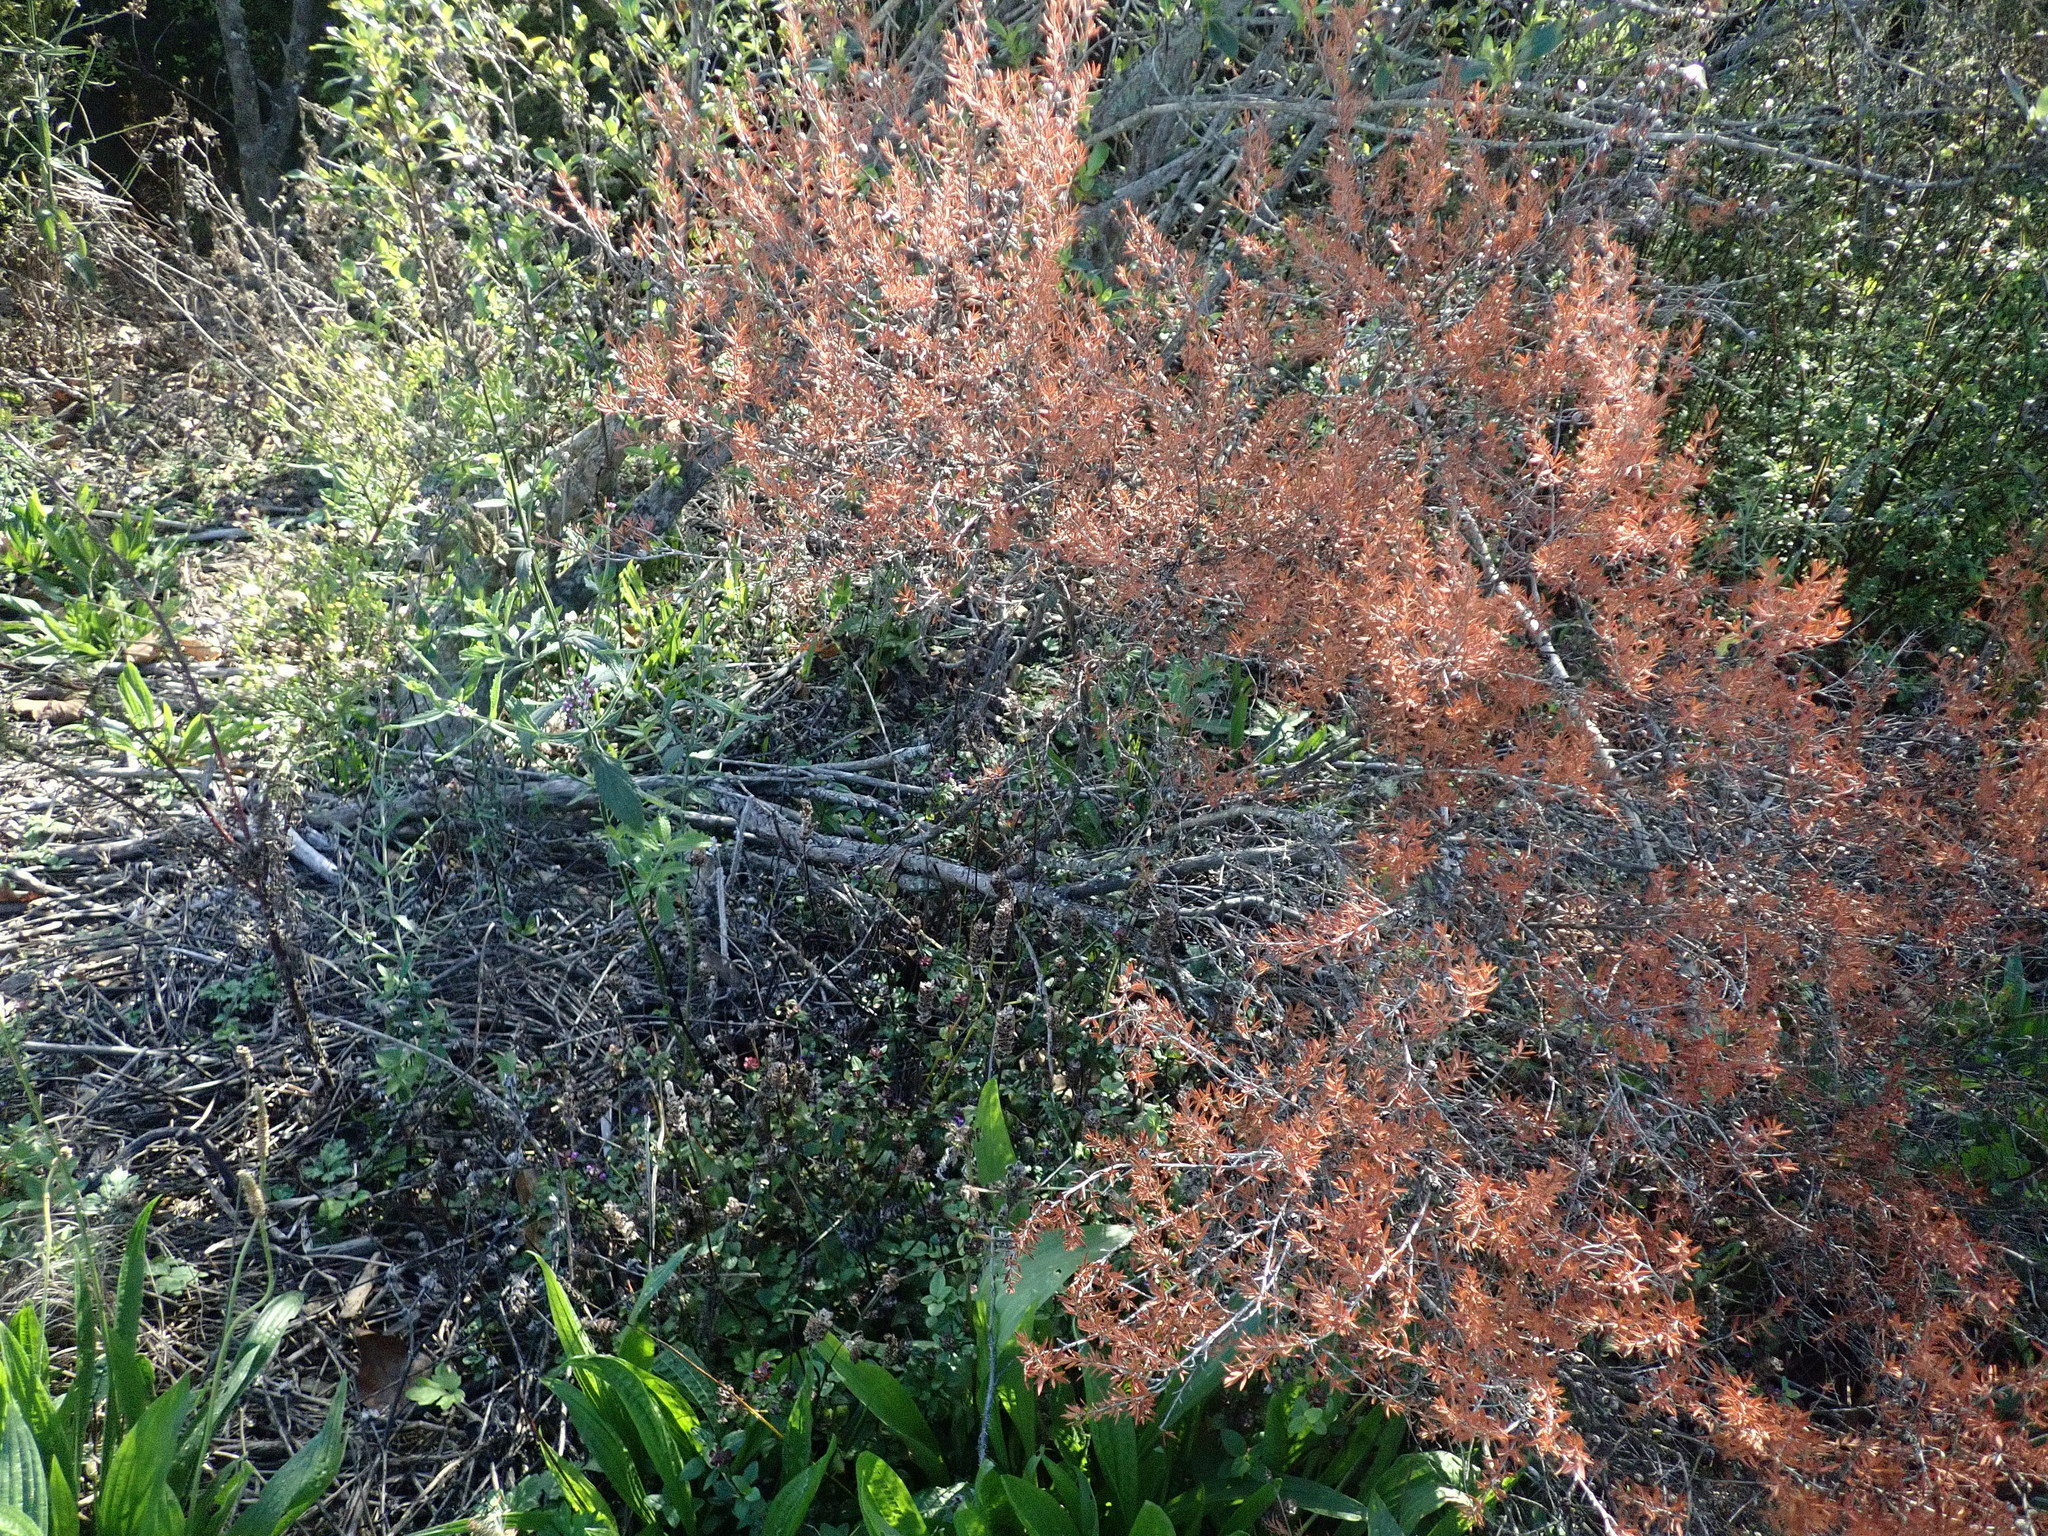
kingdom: Plantae
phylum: Tracheophyta
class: Magnoliopsida
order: Lamiales
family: Plantaginaceae
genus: Plantago
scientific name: Plantago lanceolata
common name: Ribwort plantain
